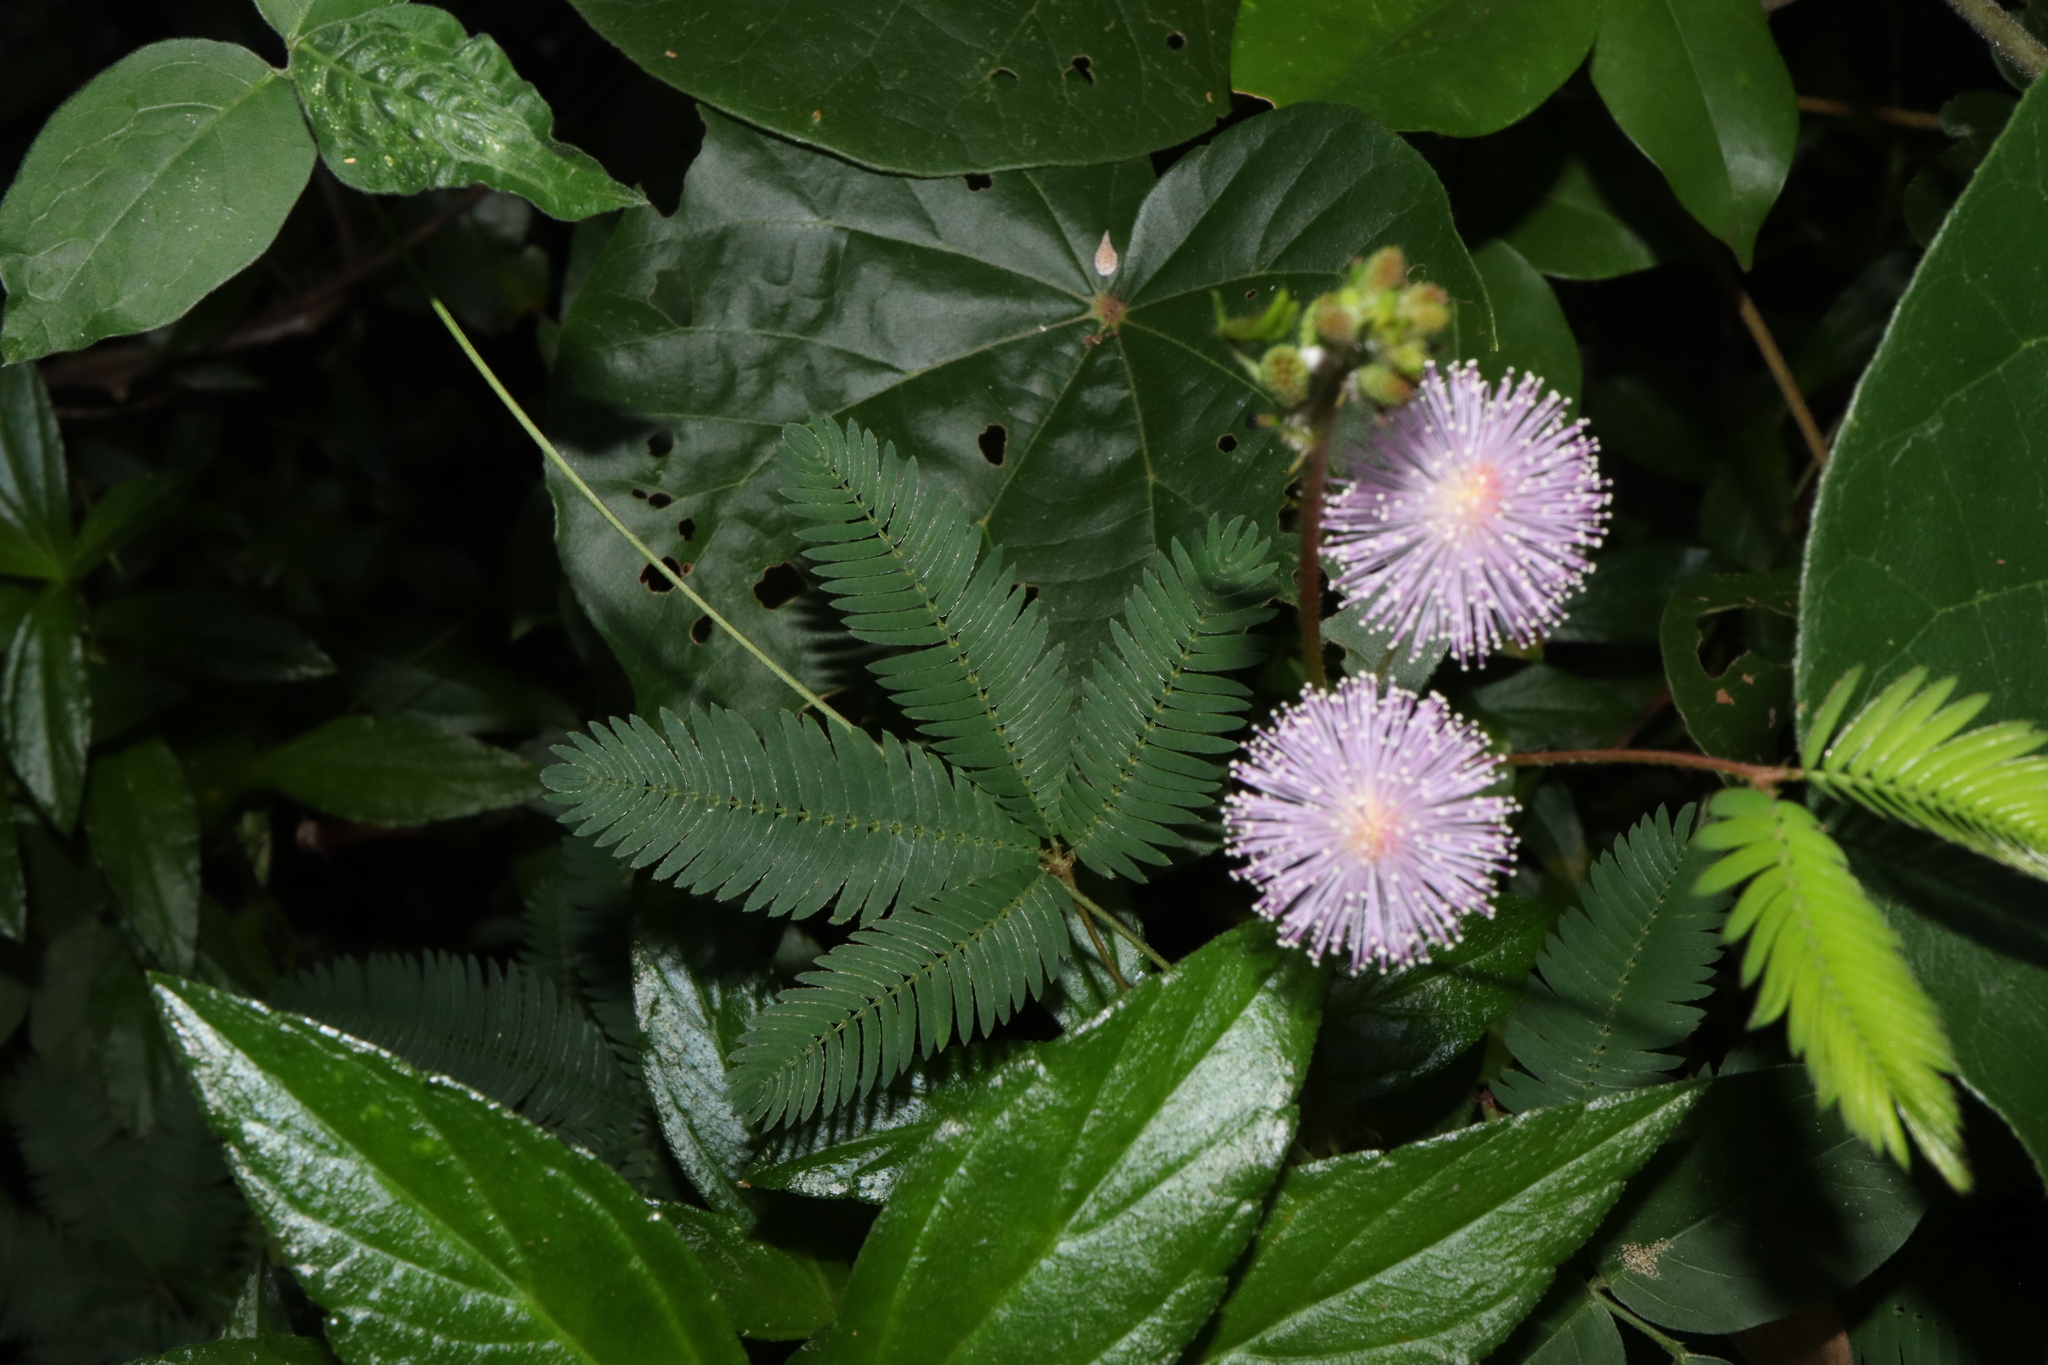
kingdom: Plantae
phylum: Tracheophyta
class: Magnoliopsida
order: Fabales
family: Fabaceae
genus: Mimosa
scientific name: Mimosa pudica
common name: Sensitive plant
